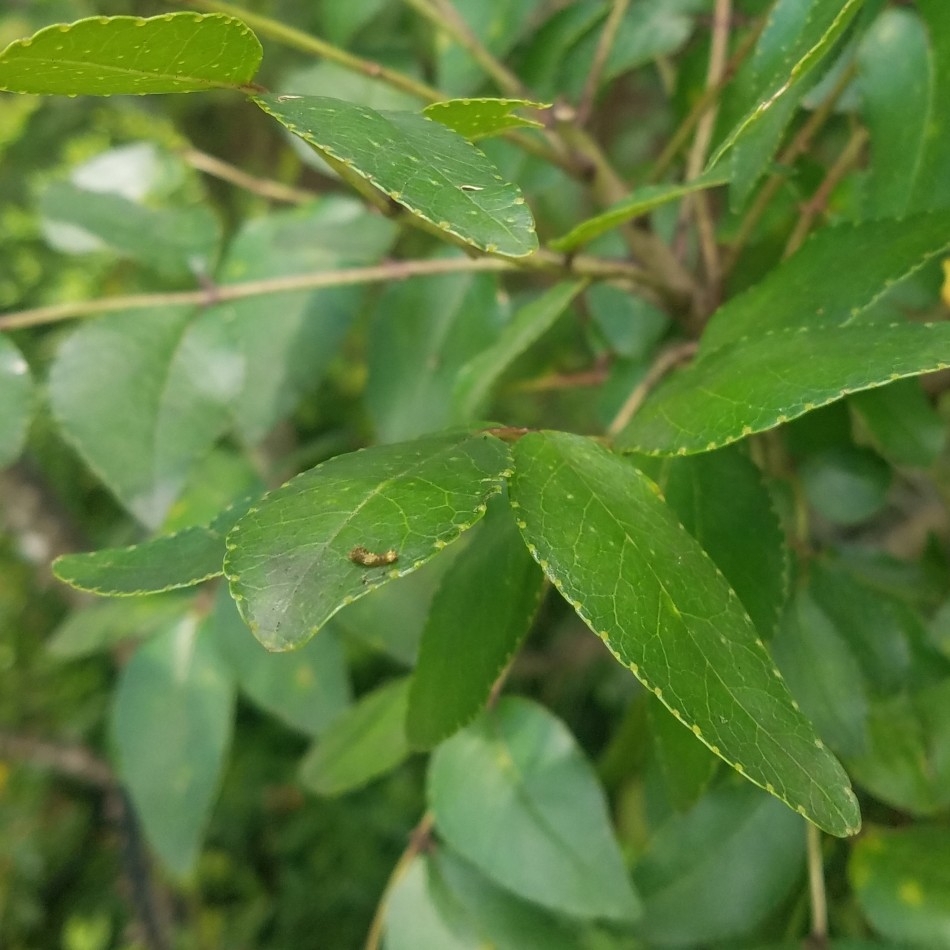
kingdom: Animalia
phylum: Arthropoda
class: Insecta
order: Lepidoptera
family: Papilionidae
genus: Papilio
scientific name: Papilio cresphontes
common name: Giant swallowtail
